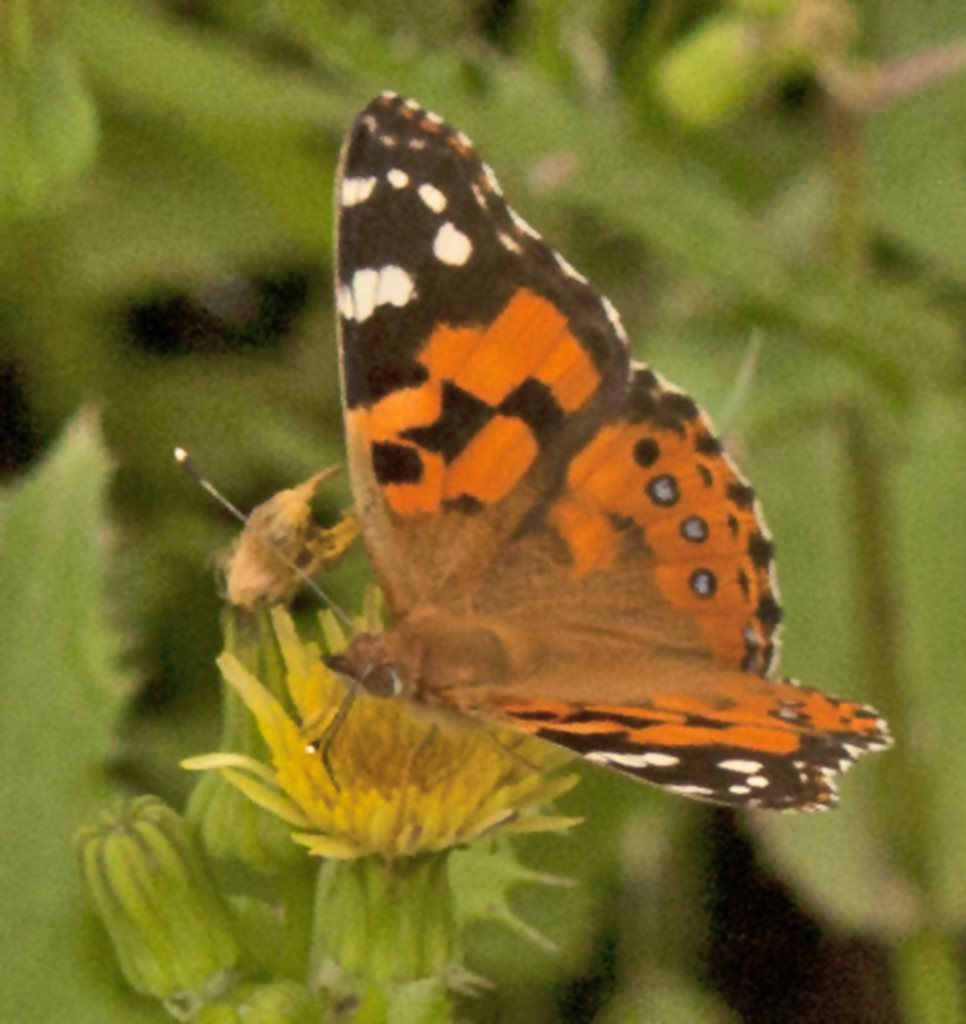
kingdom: Animalia
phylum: Arthropoda
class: Insecta
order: Lepidoptera
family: Nymphalidae
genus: Vanessa
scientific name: Vanessa kershawi
